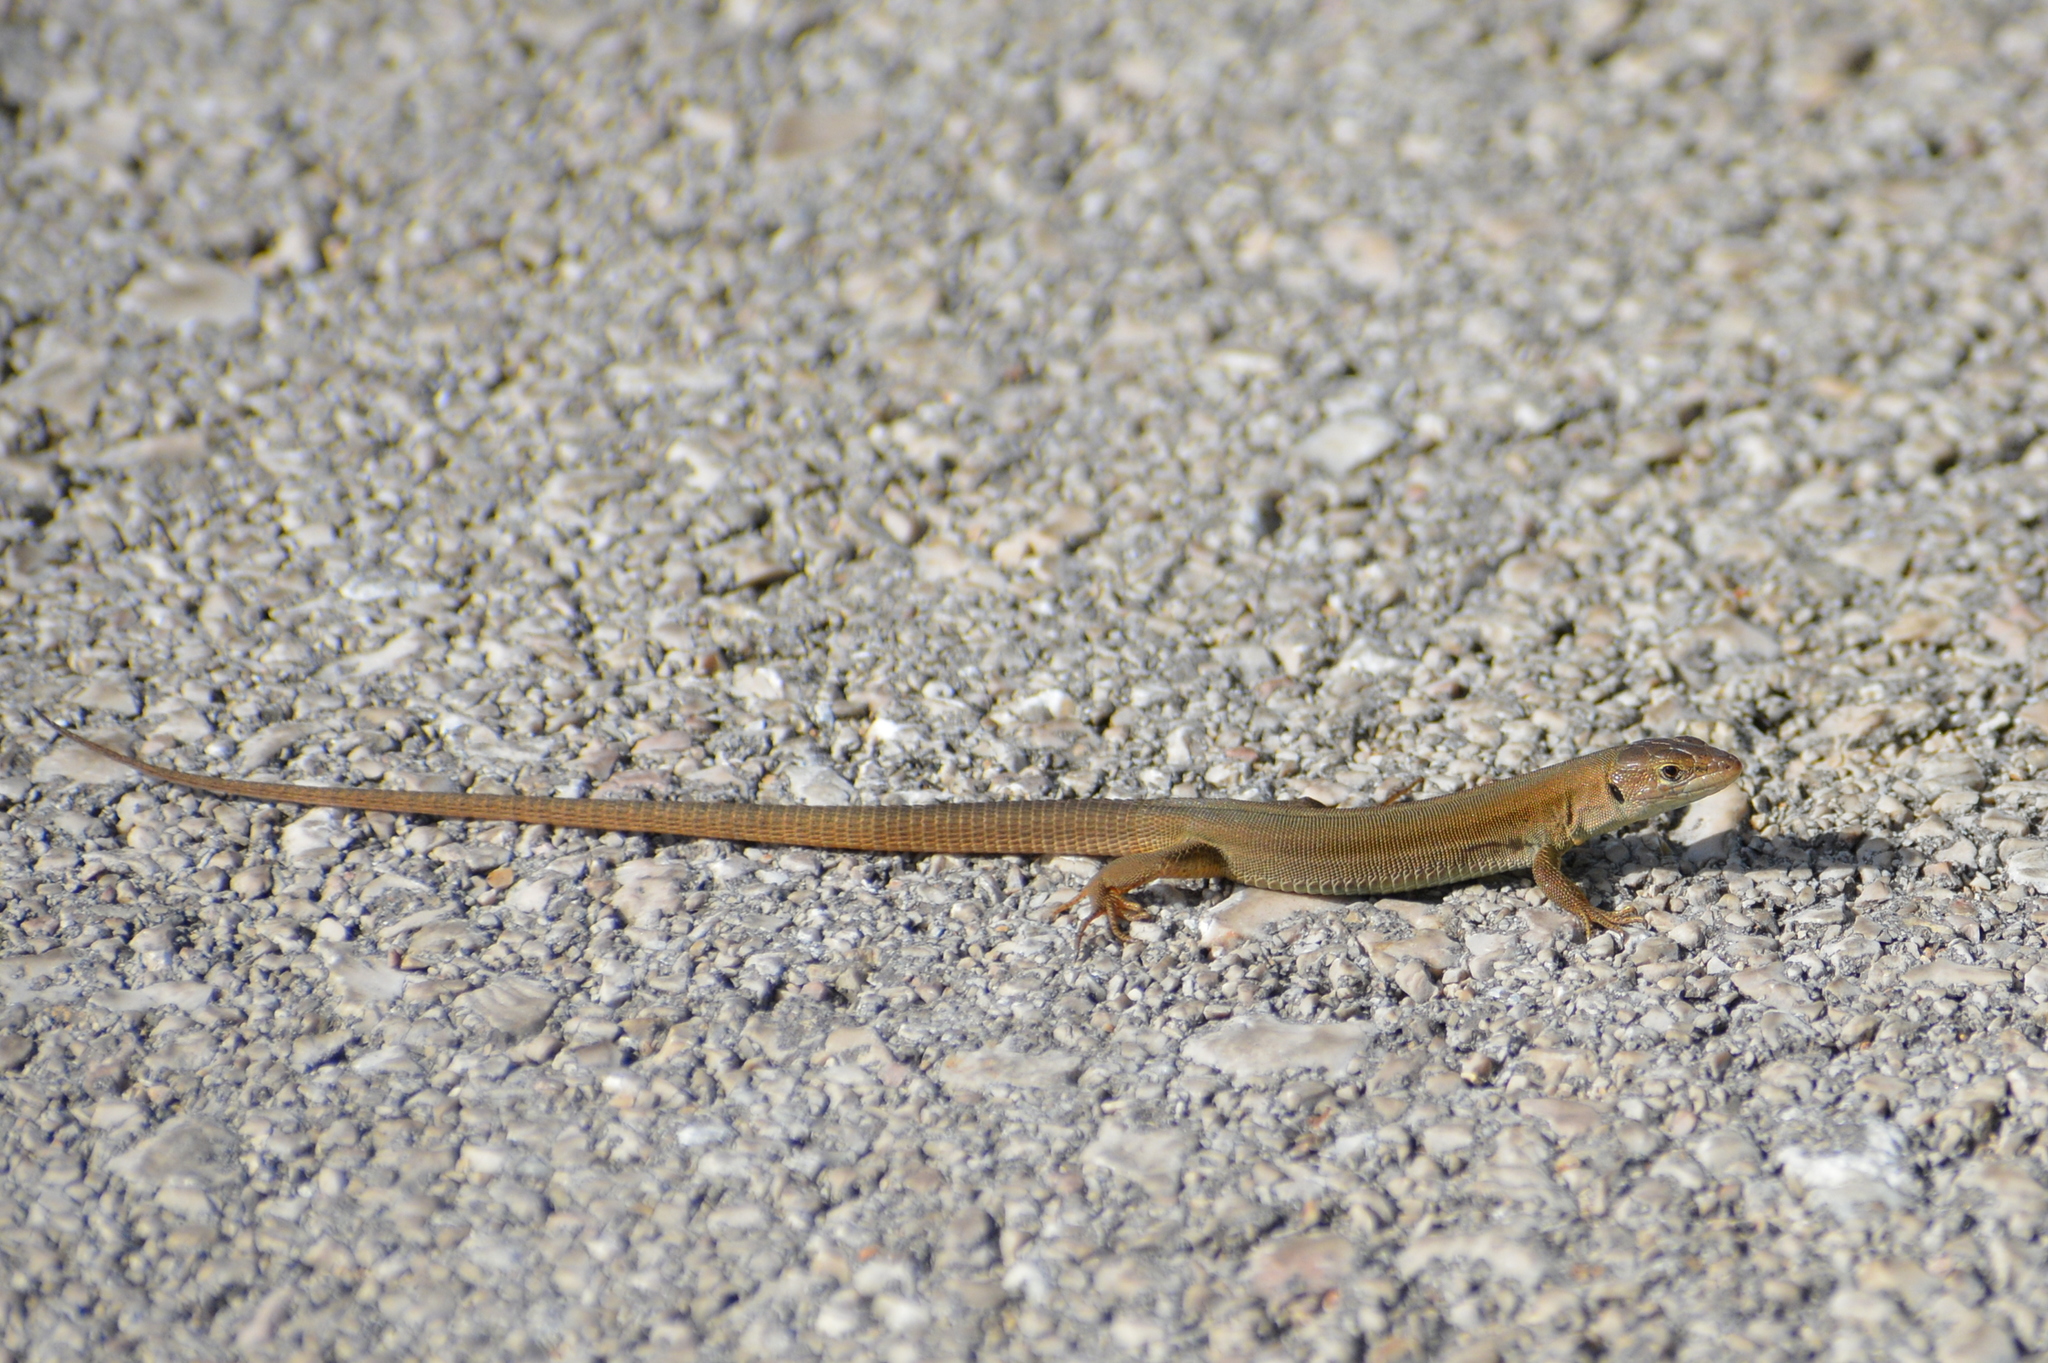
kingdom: Animalia
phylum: Chordata
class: Squamata
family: Lacertidae
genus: Podarcis
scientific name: Podarcis melisellensis
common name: Dalmatian wall lizard
